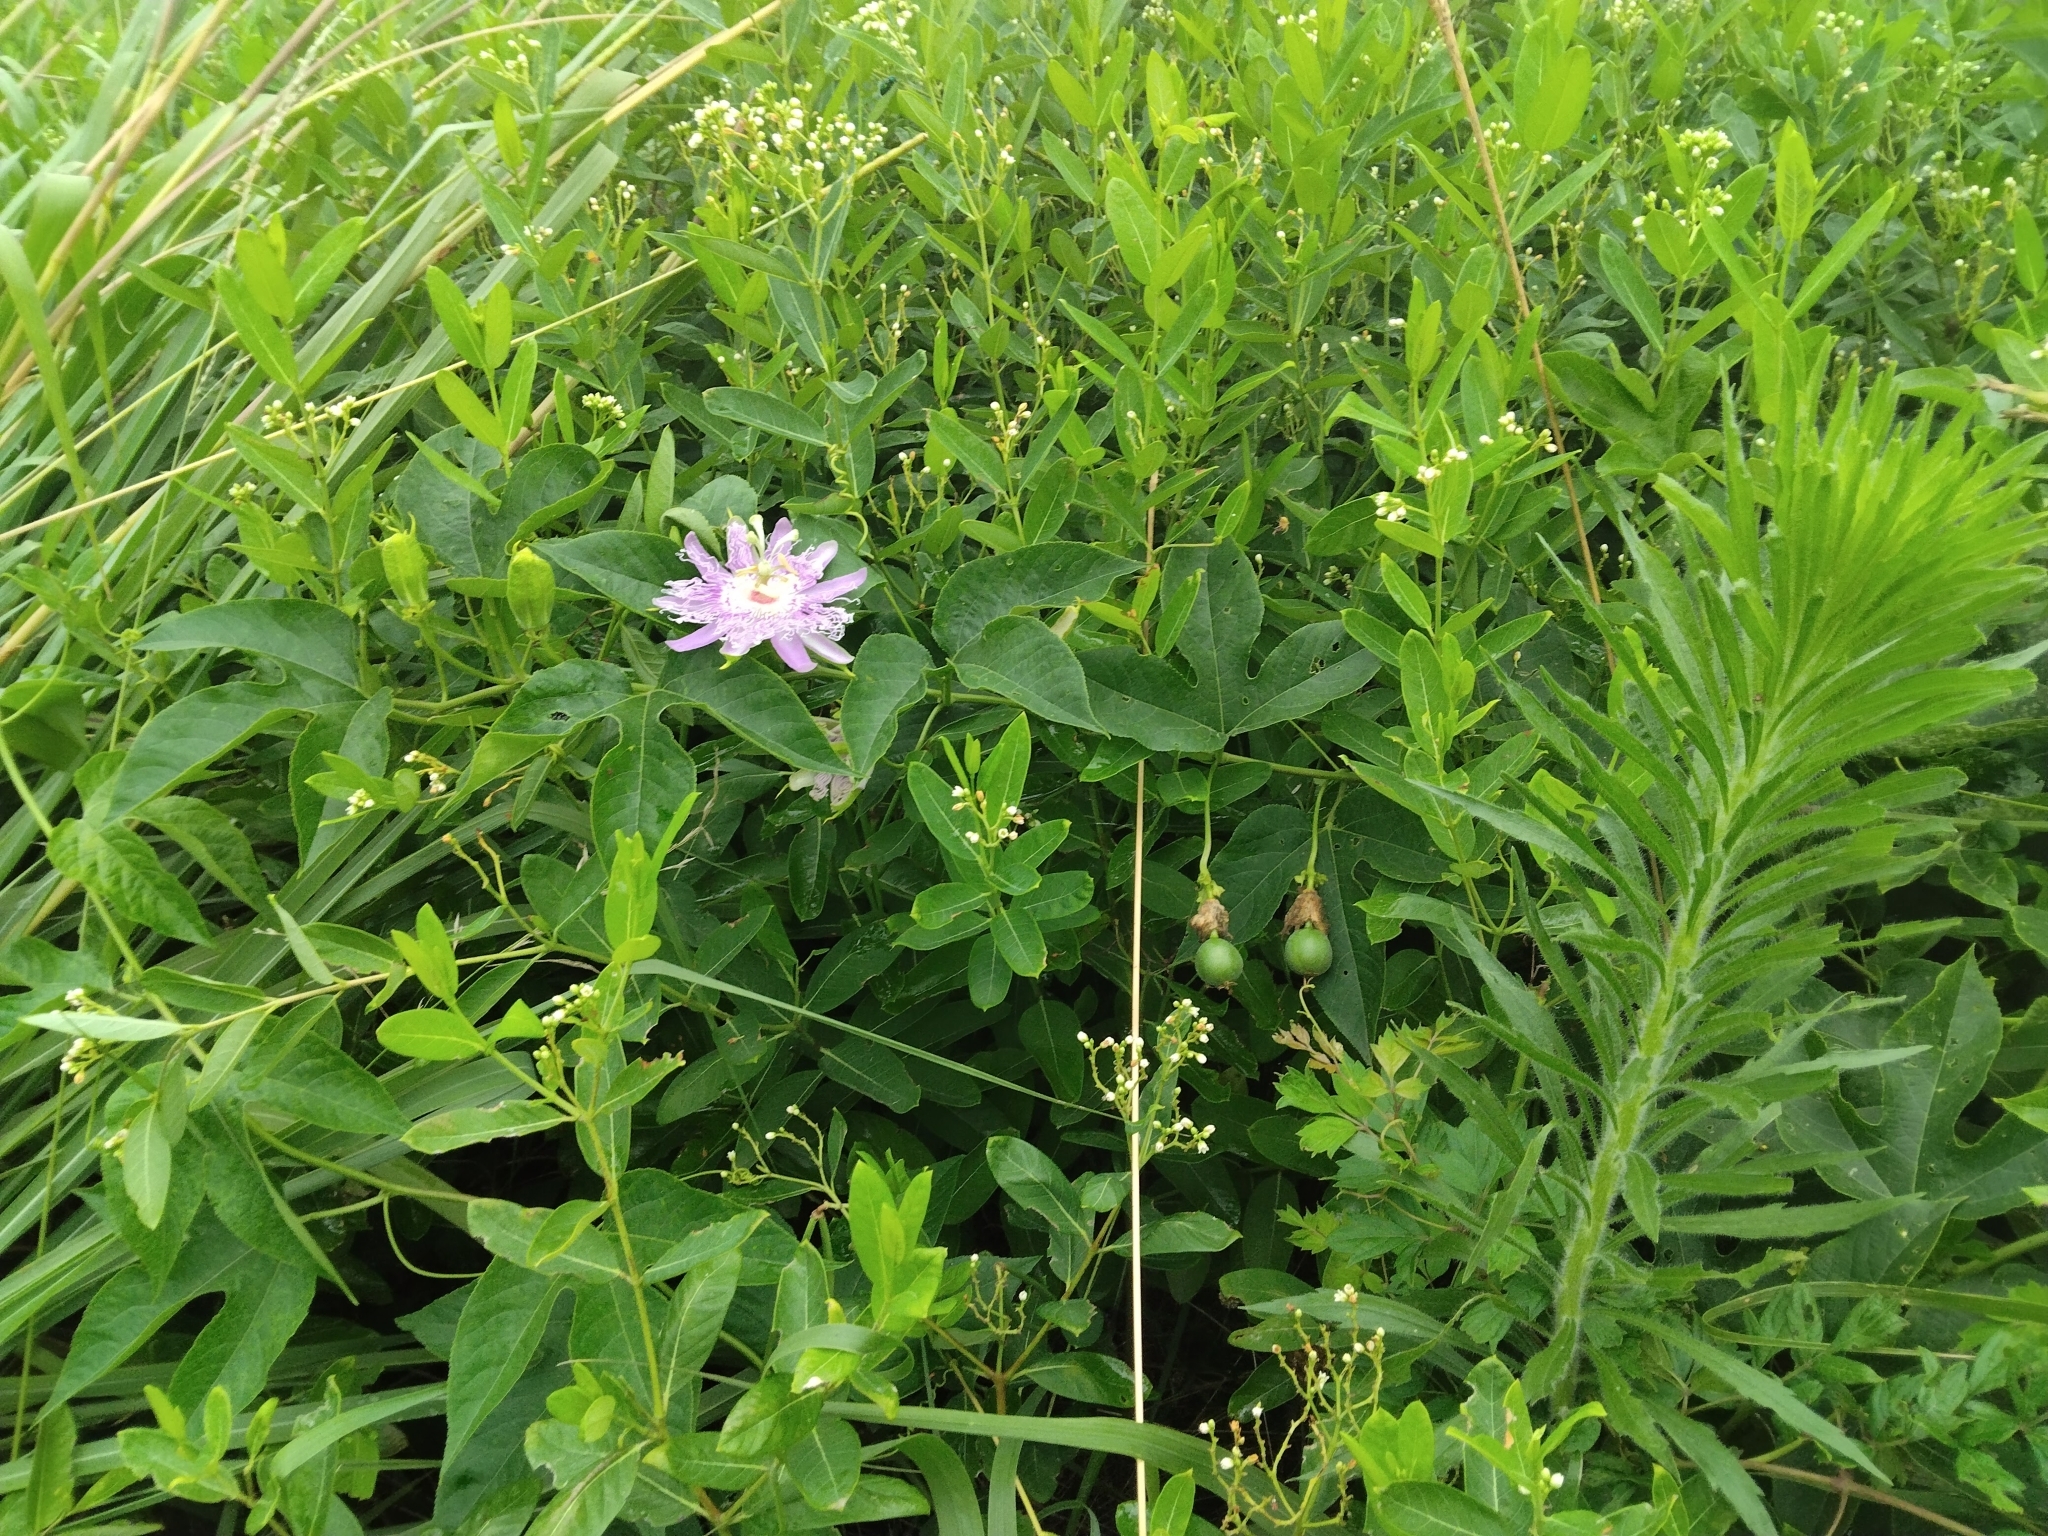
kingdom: Plantae
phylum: Tracheophyta
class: Magnoliopsida
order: Malpighiales
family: Passifloraceae
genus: Passiflora
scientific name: Passiflora incarnata
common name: Apricot-vine
